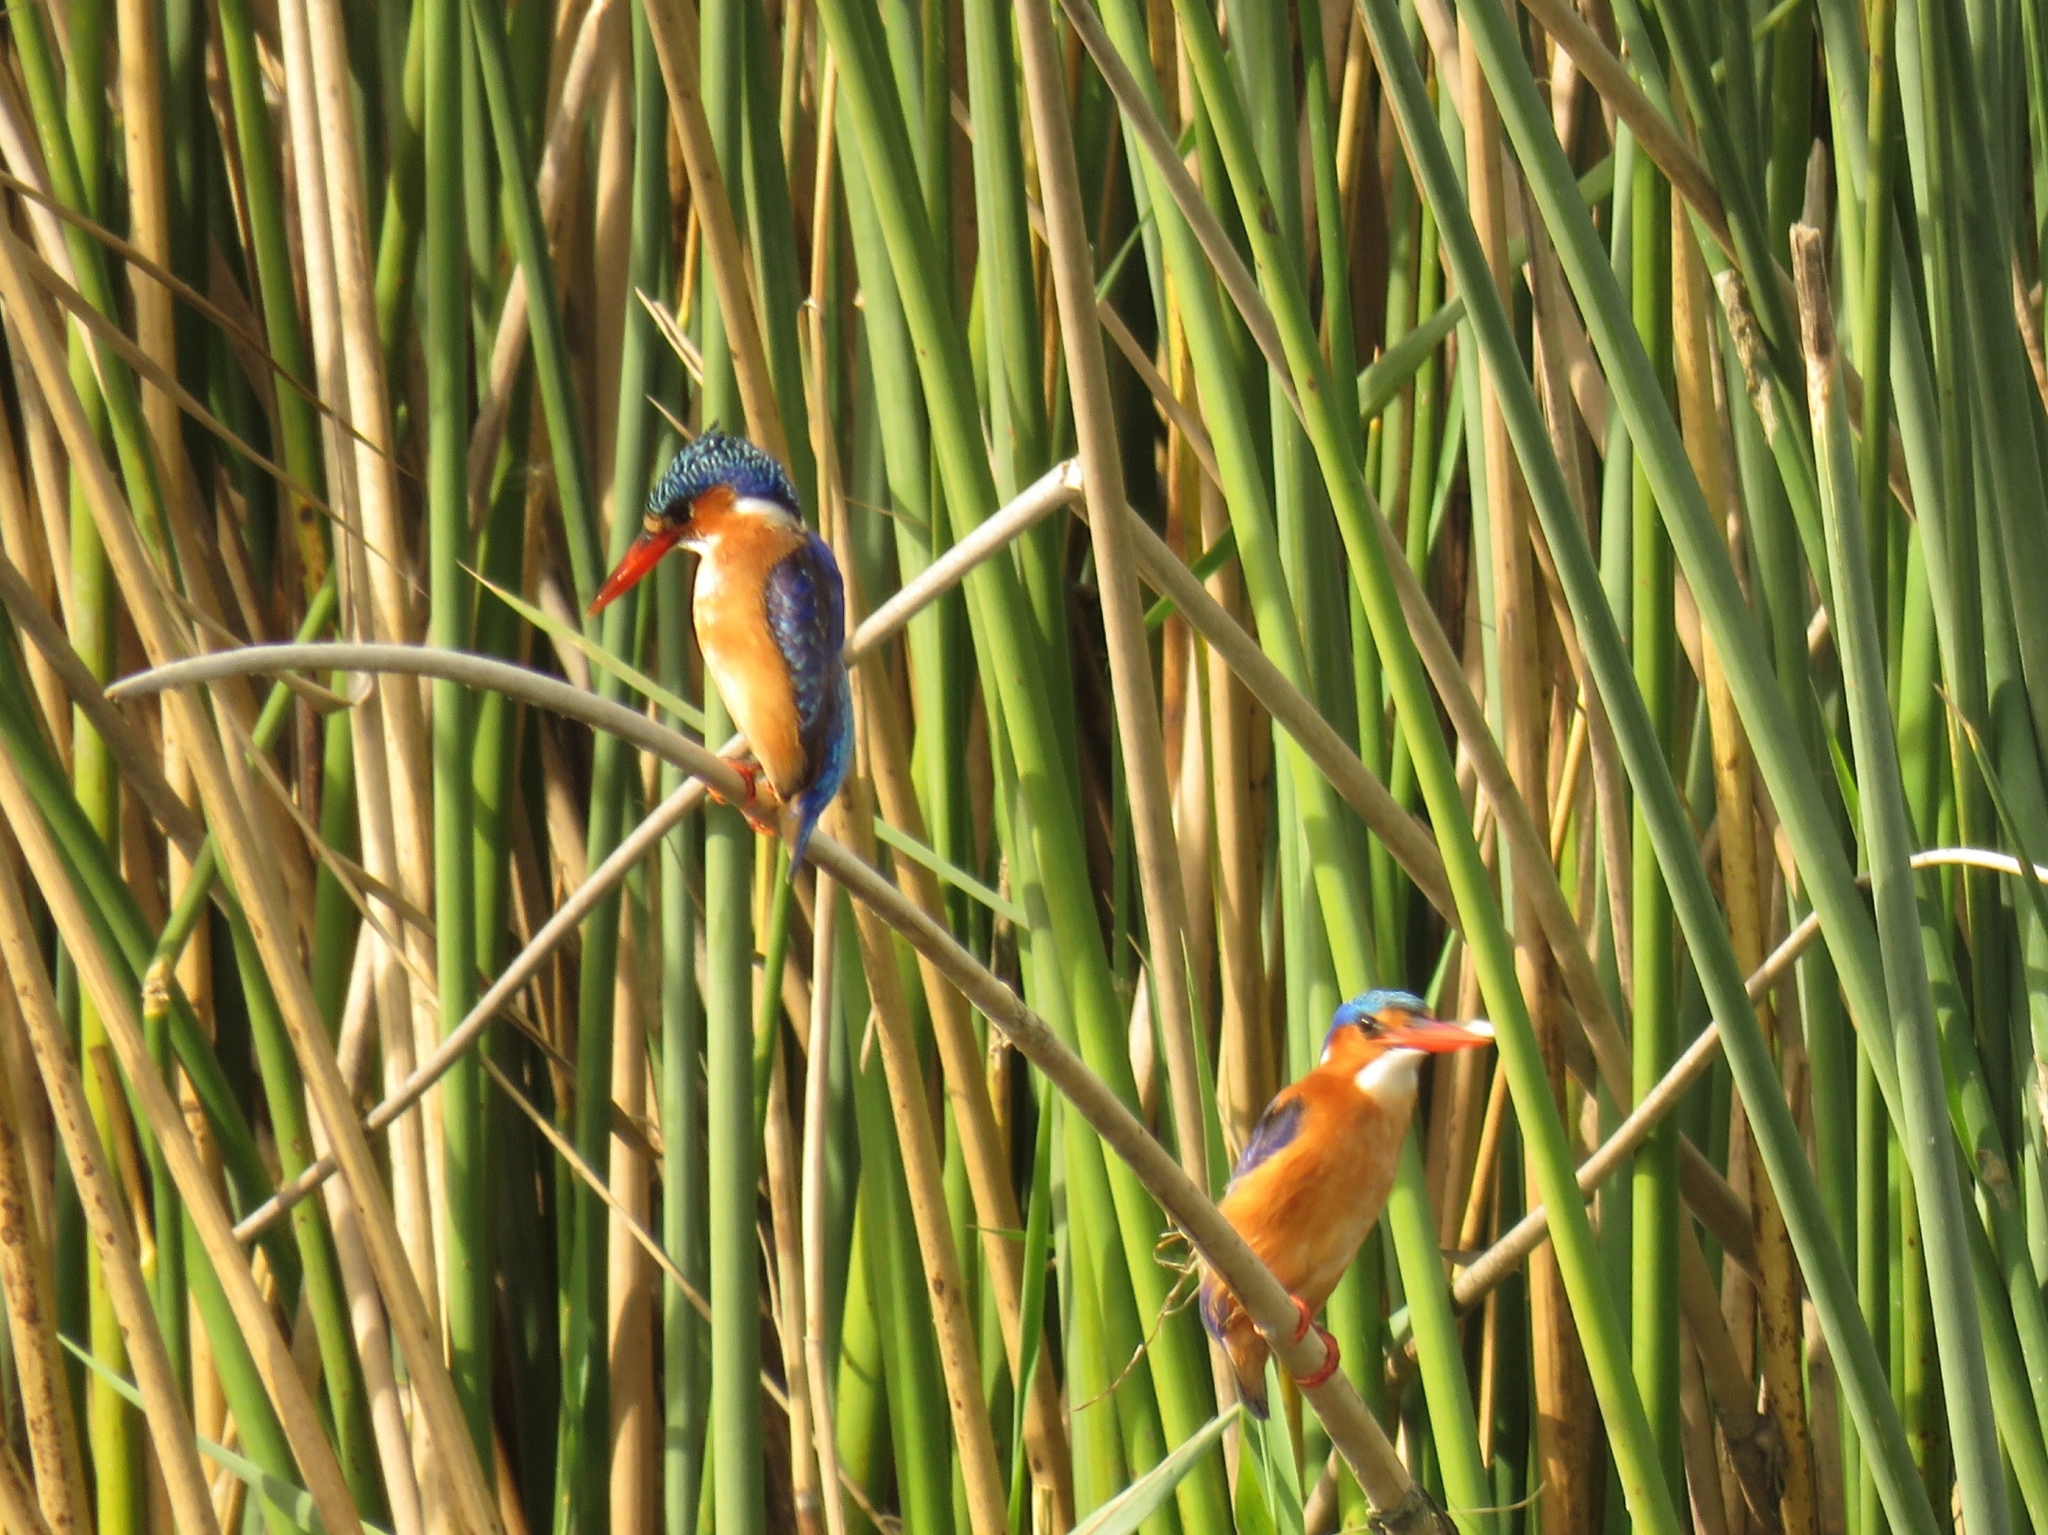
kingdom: Animalia
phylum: Chordata
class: Aves
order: Coraciiformes
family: Alcedinidae
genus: Corythornis
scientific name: Corythornis cristatus
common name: Malachite kingfisher
